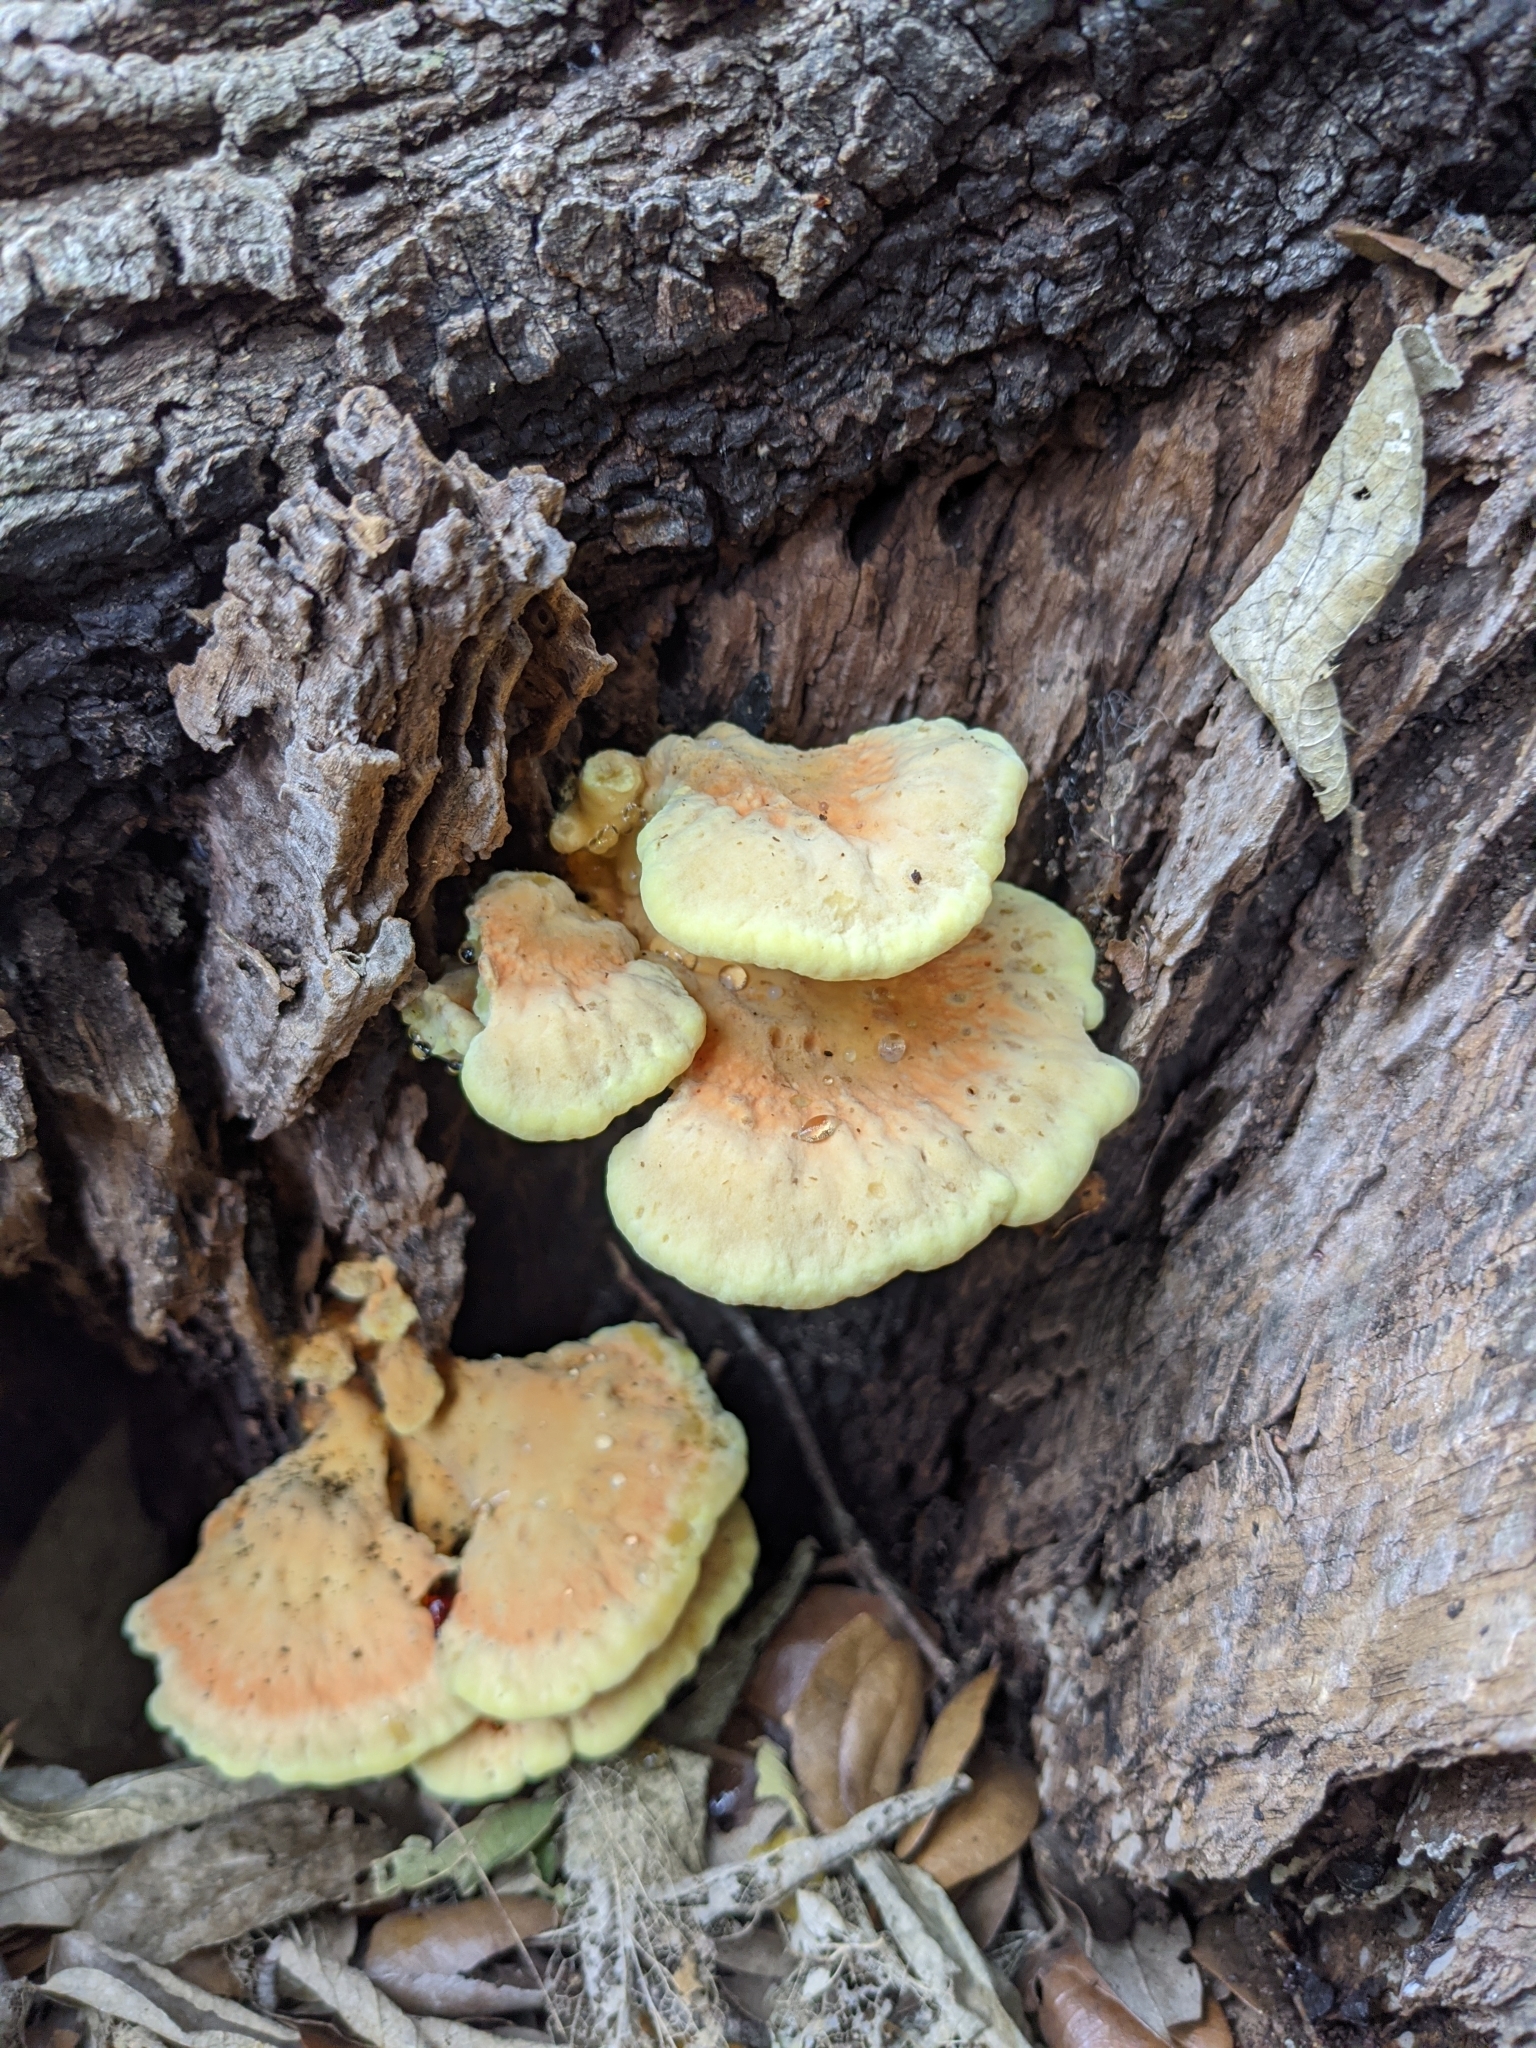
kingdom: Fungi
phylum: Basidiomycota
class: Agaricomycetes
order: Polyporales
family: Laetiporaceae
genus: Laetiporus
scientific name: Laetiporus sulphureus
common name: Chicken of the woods
